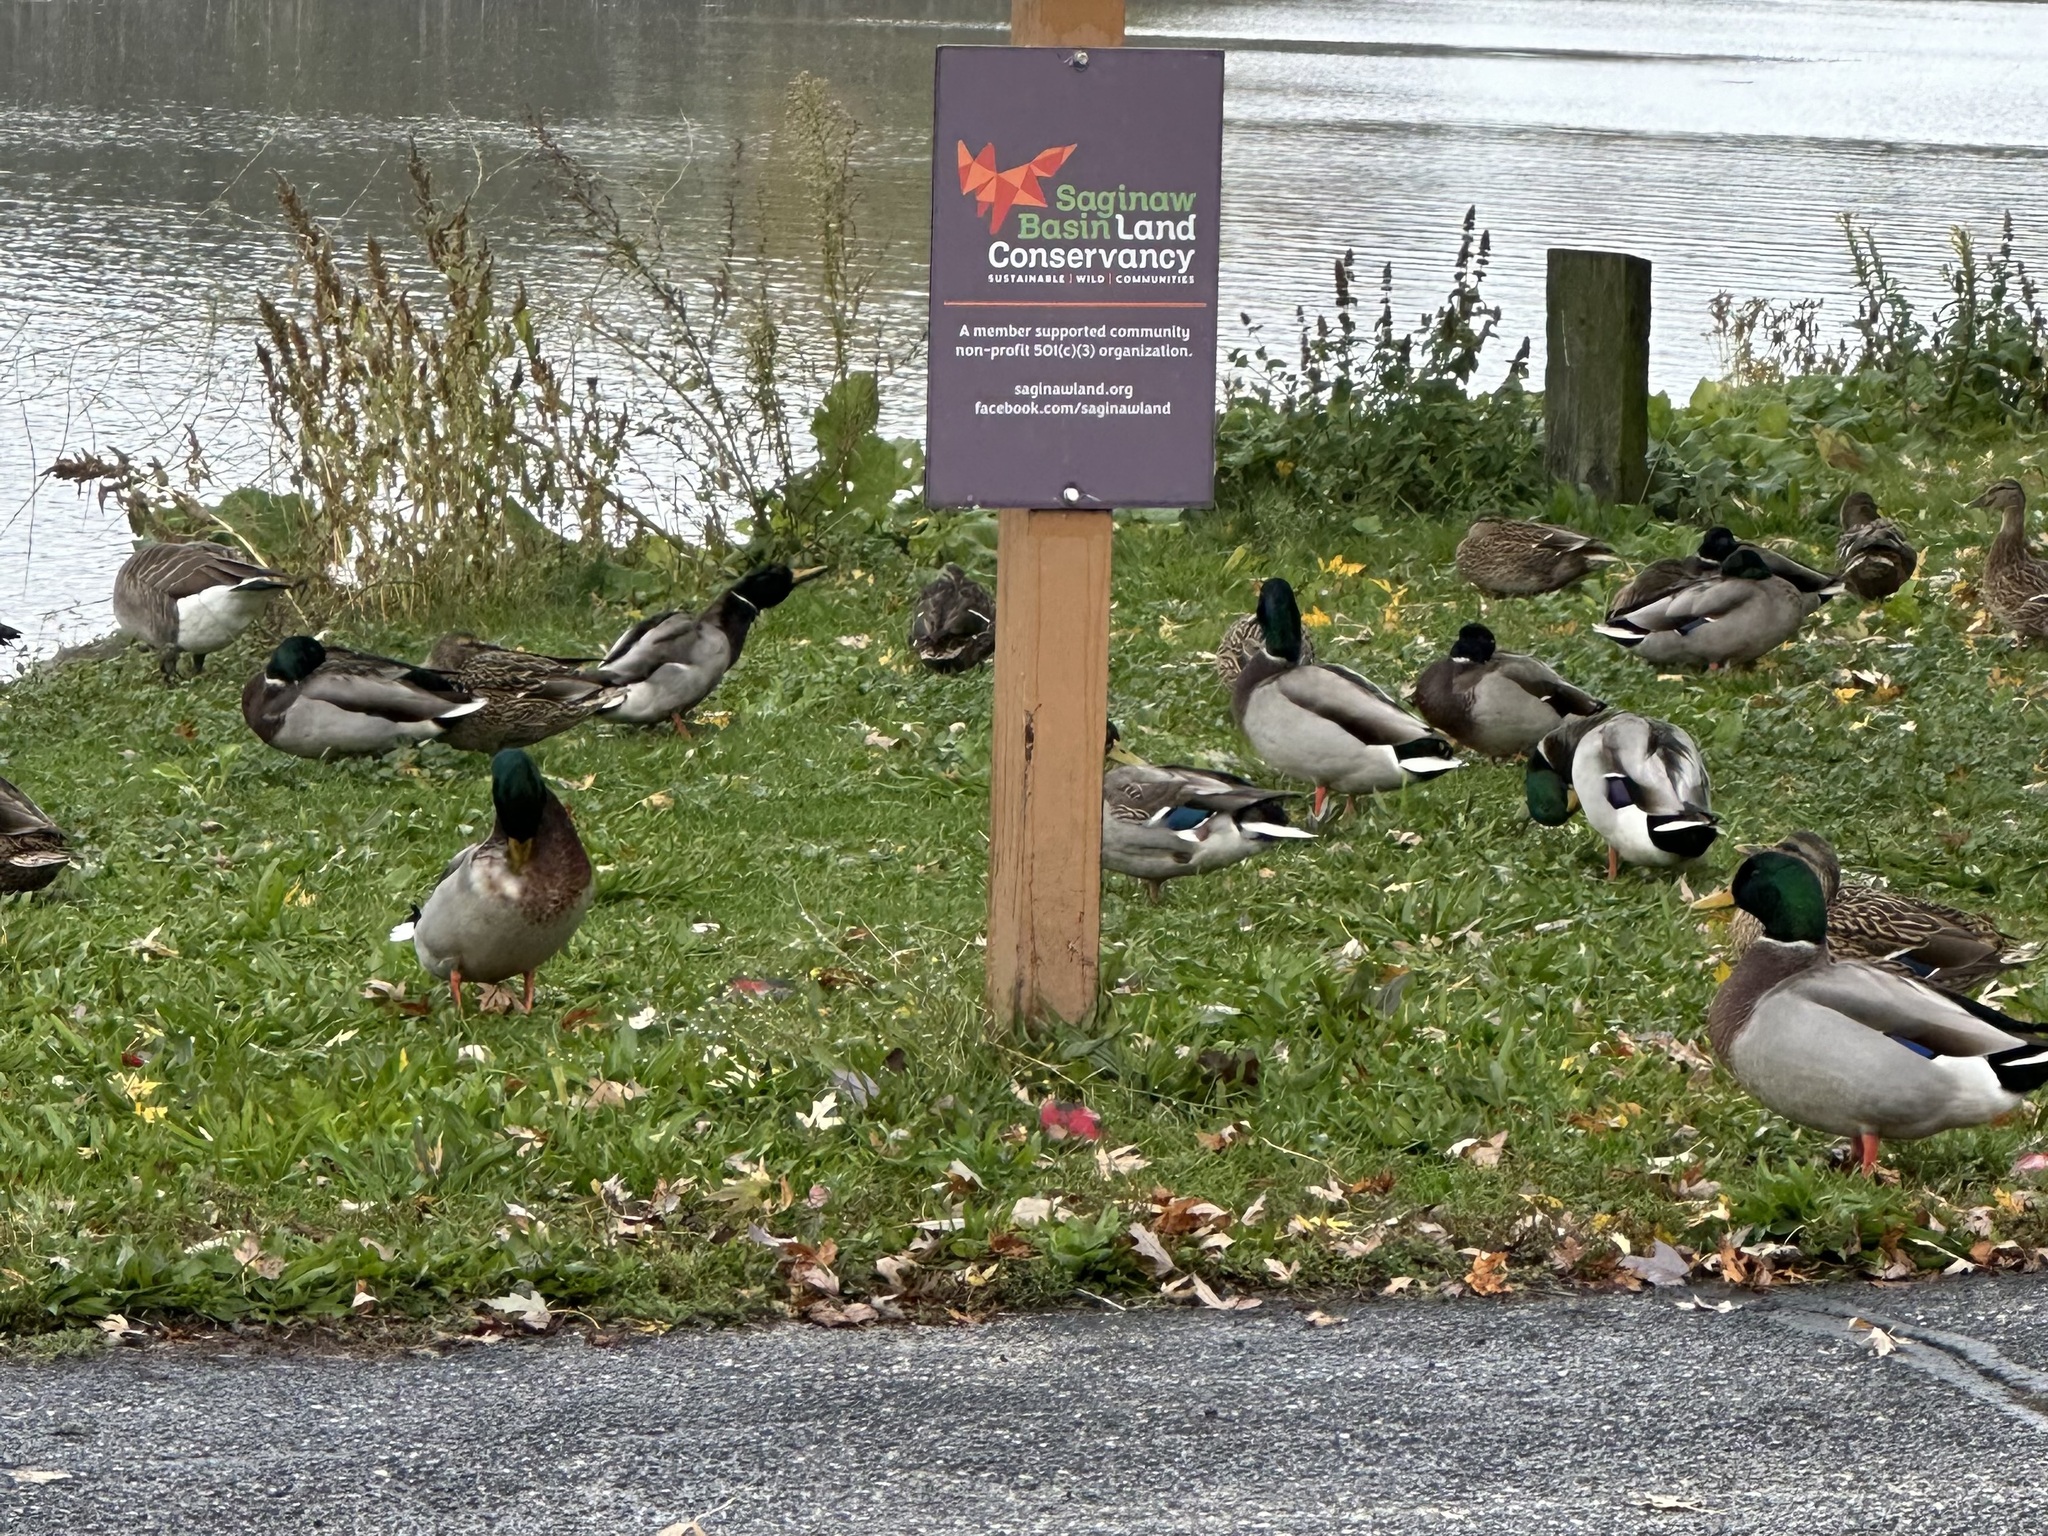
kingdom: Animalia
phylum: Chordata
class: Aves
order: Anseriformes
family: Anatidae
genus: Anas
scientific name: Anas platyrhynchos
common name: Mallard
